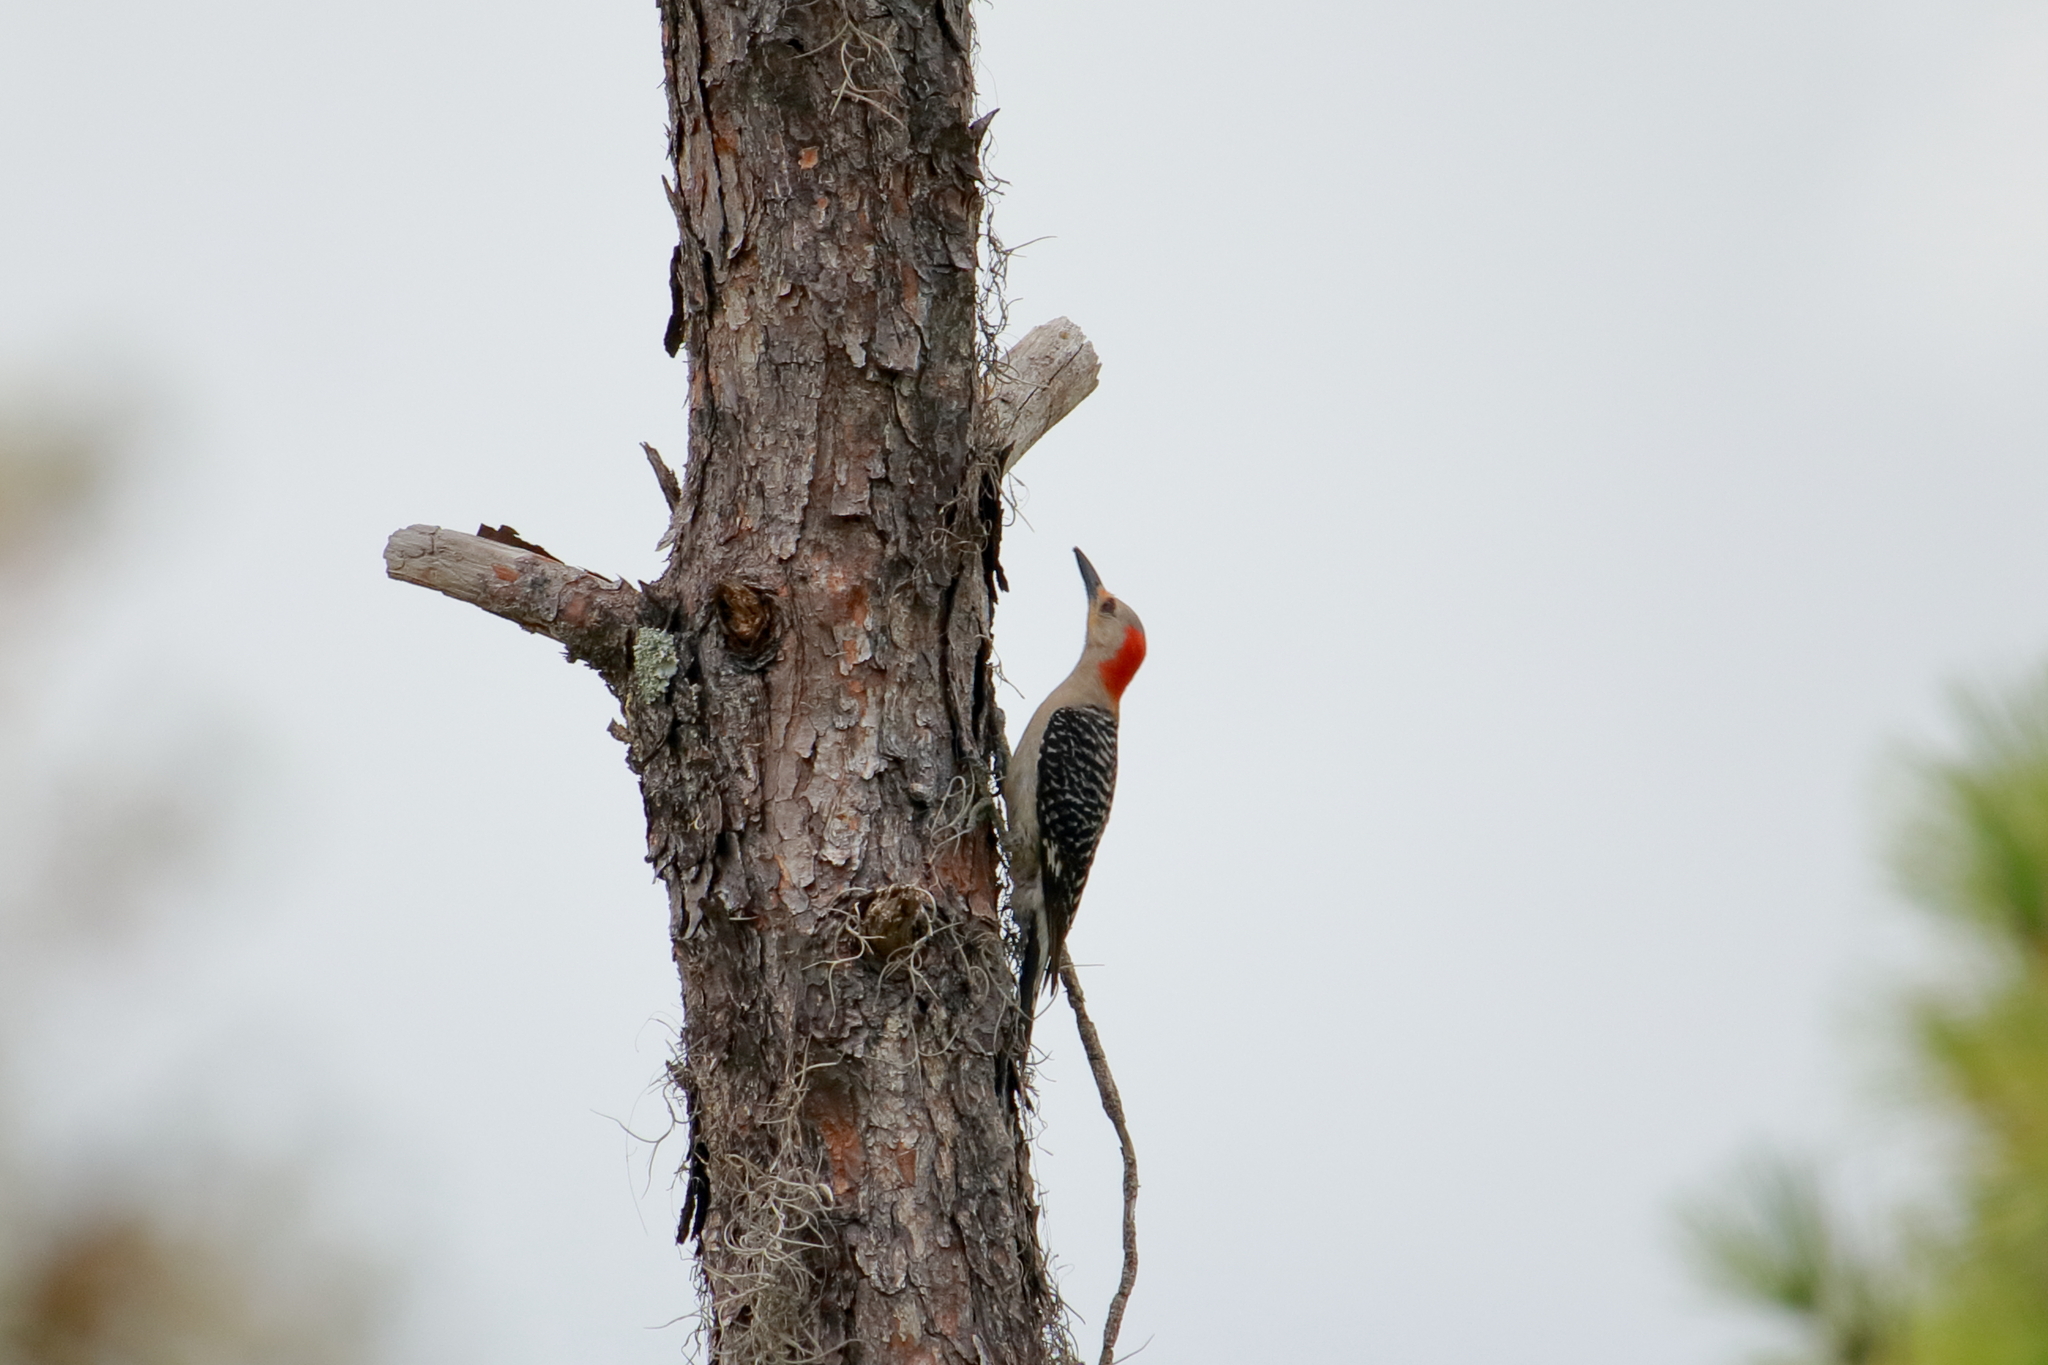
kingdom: Animalia
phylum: Chordata
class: Aves
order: Piciformes
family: Picidae
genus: Melanerpes
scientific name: Melanerpes carolinus
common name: Red-bellied woodpecker
